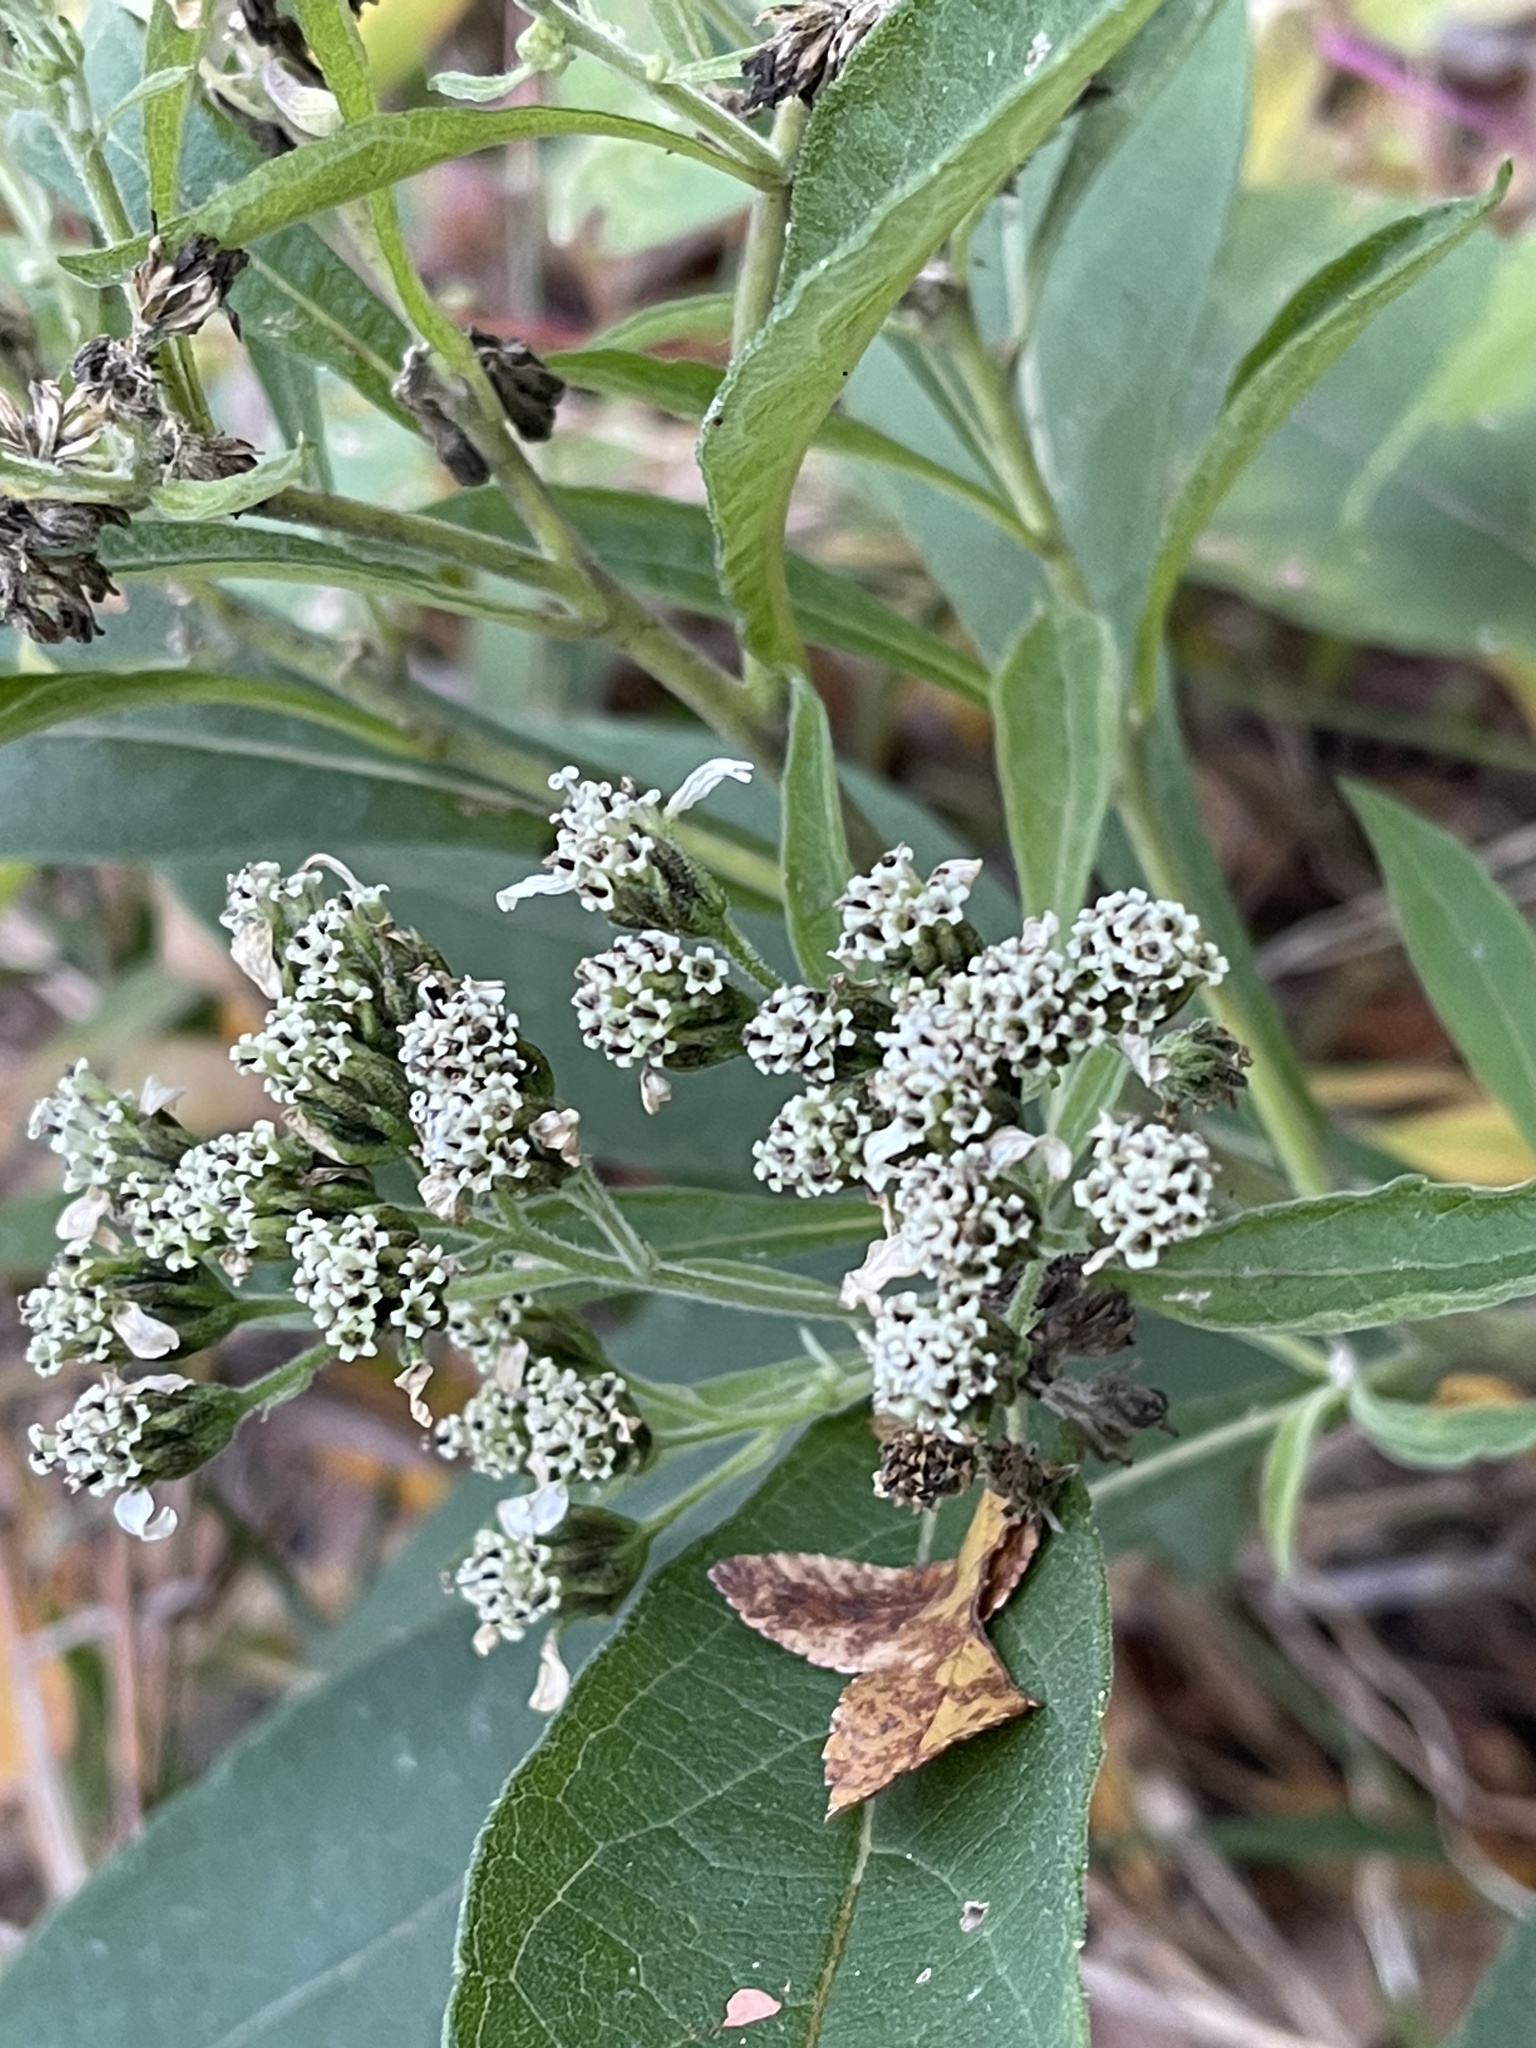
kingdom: Plantae
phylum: Tracheophyta
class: Magnoliopsida
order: Asterales
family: Asteraceae
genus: Verbesina
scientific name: Verbesina virginica
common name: Frostweed
